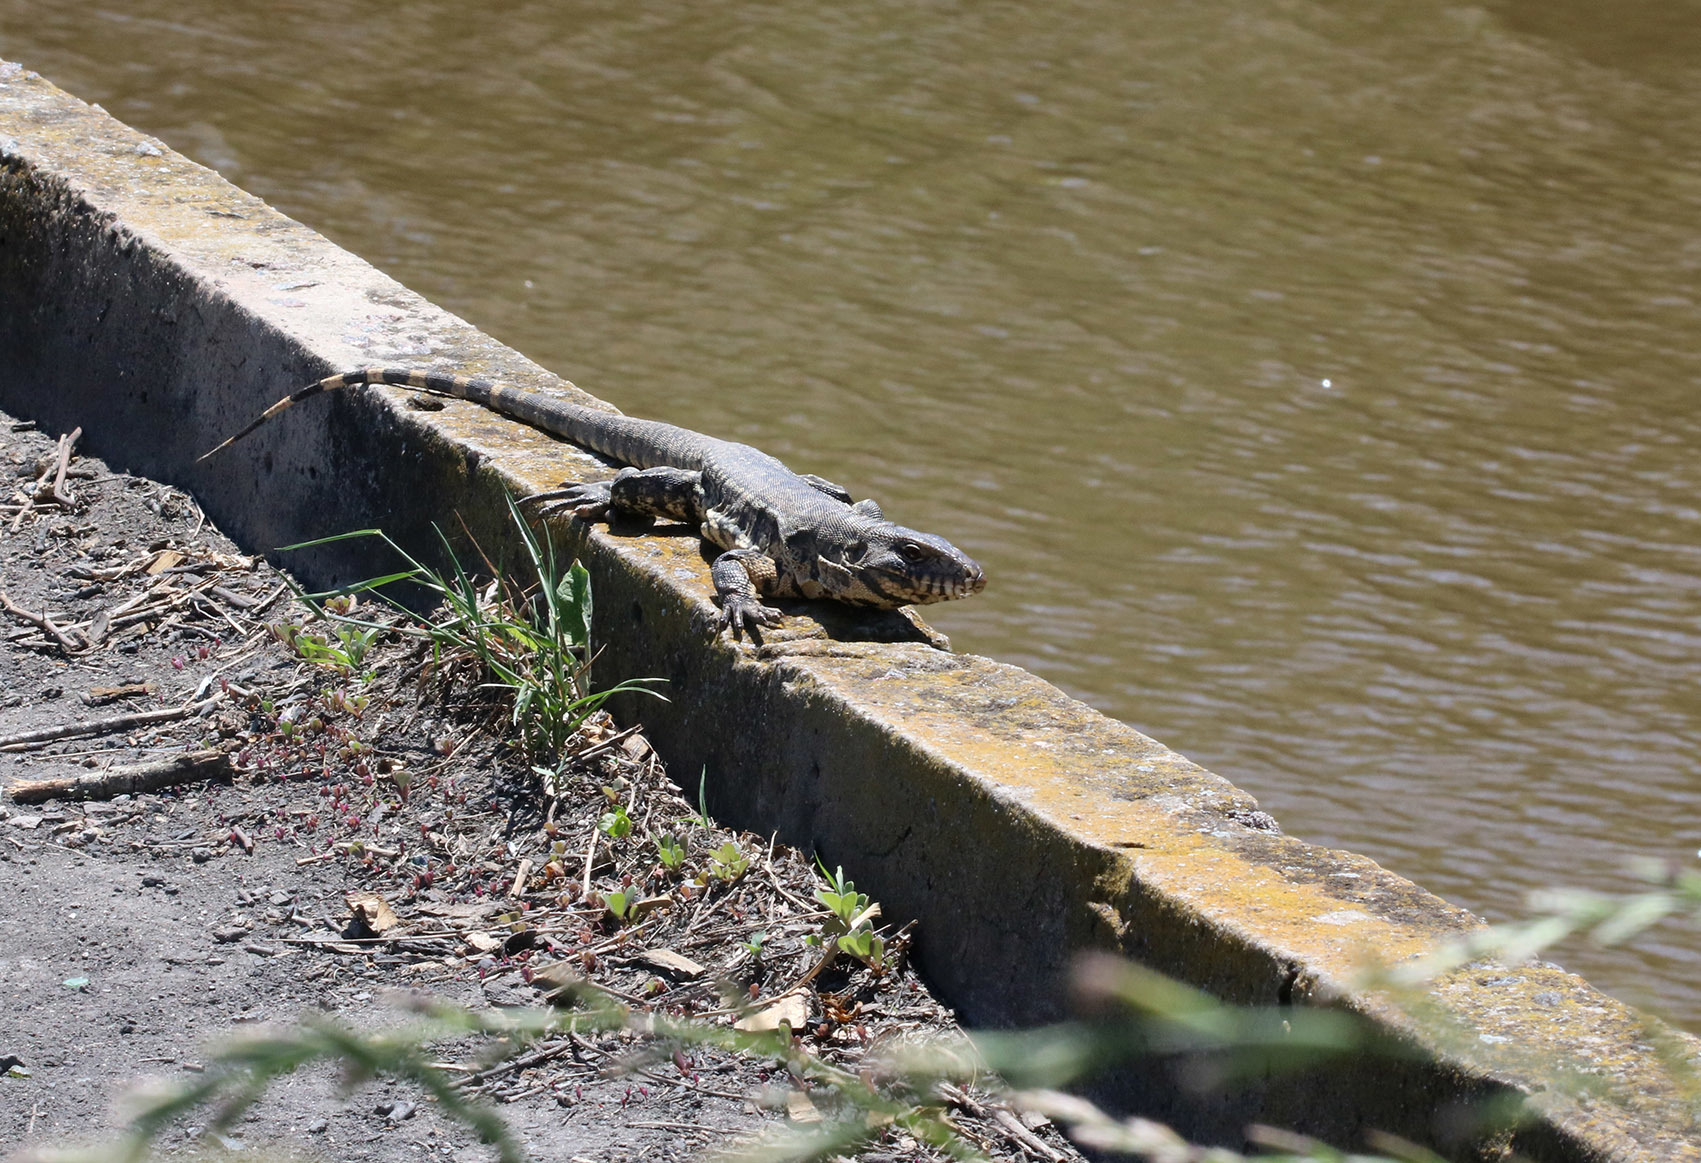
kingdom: Animalia
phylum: Chordata
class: Squamata
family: Teiidae
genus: Salvator
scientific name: Salvator merianae
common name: Argentine black and white tegu
